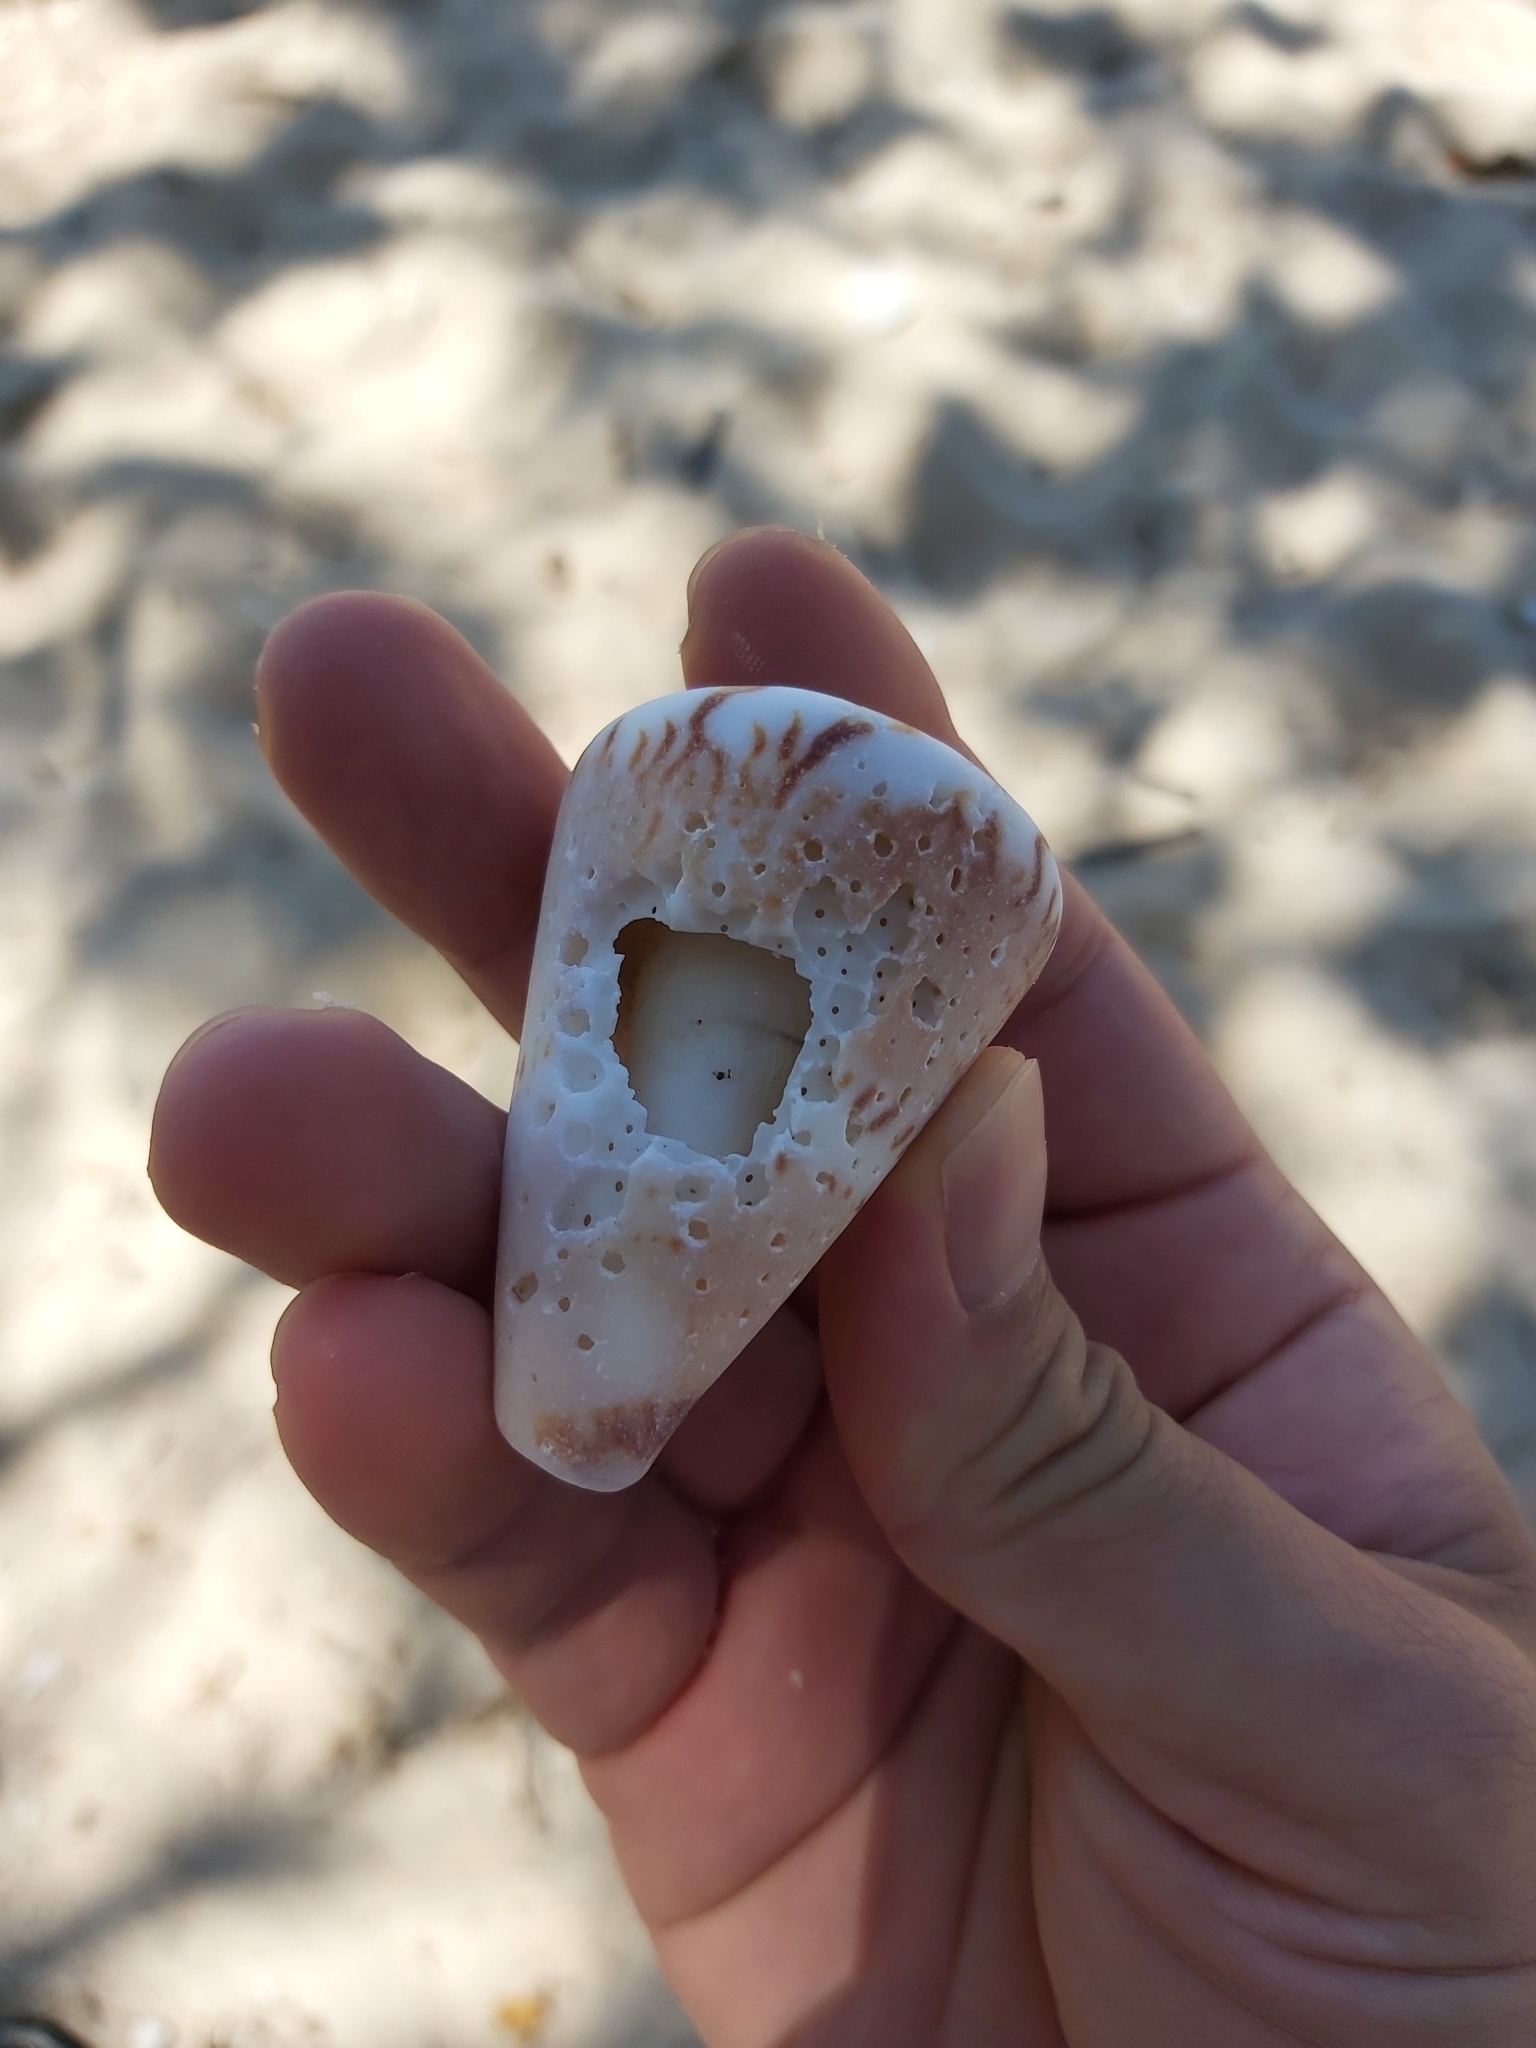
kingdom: Animalia
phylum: Mollusca
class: Gastropoda
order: Neogastropoda
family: Conidae
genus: Conus
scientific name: Conus capitaneus
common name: Captain cone
